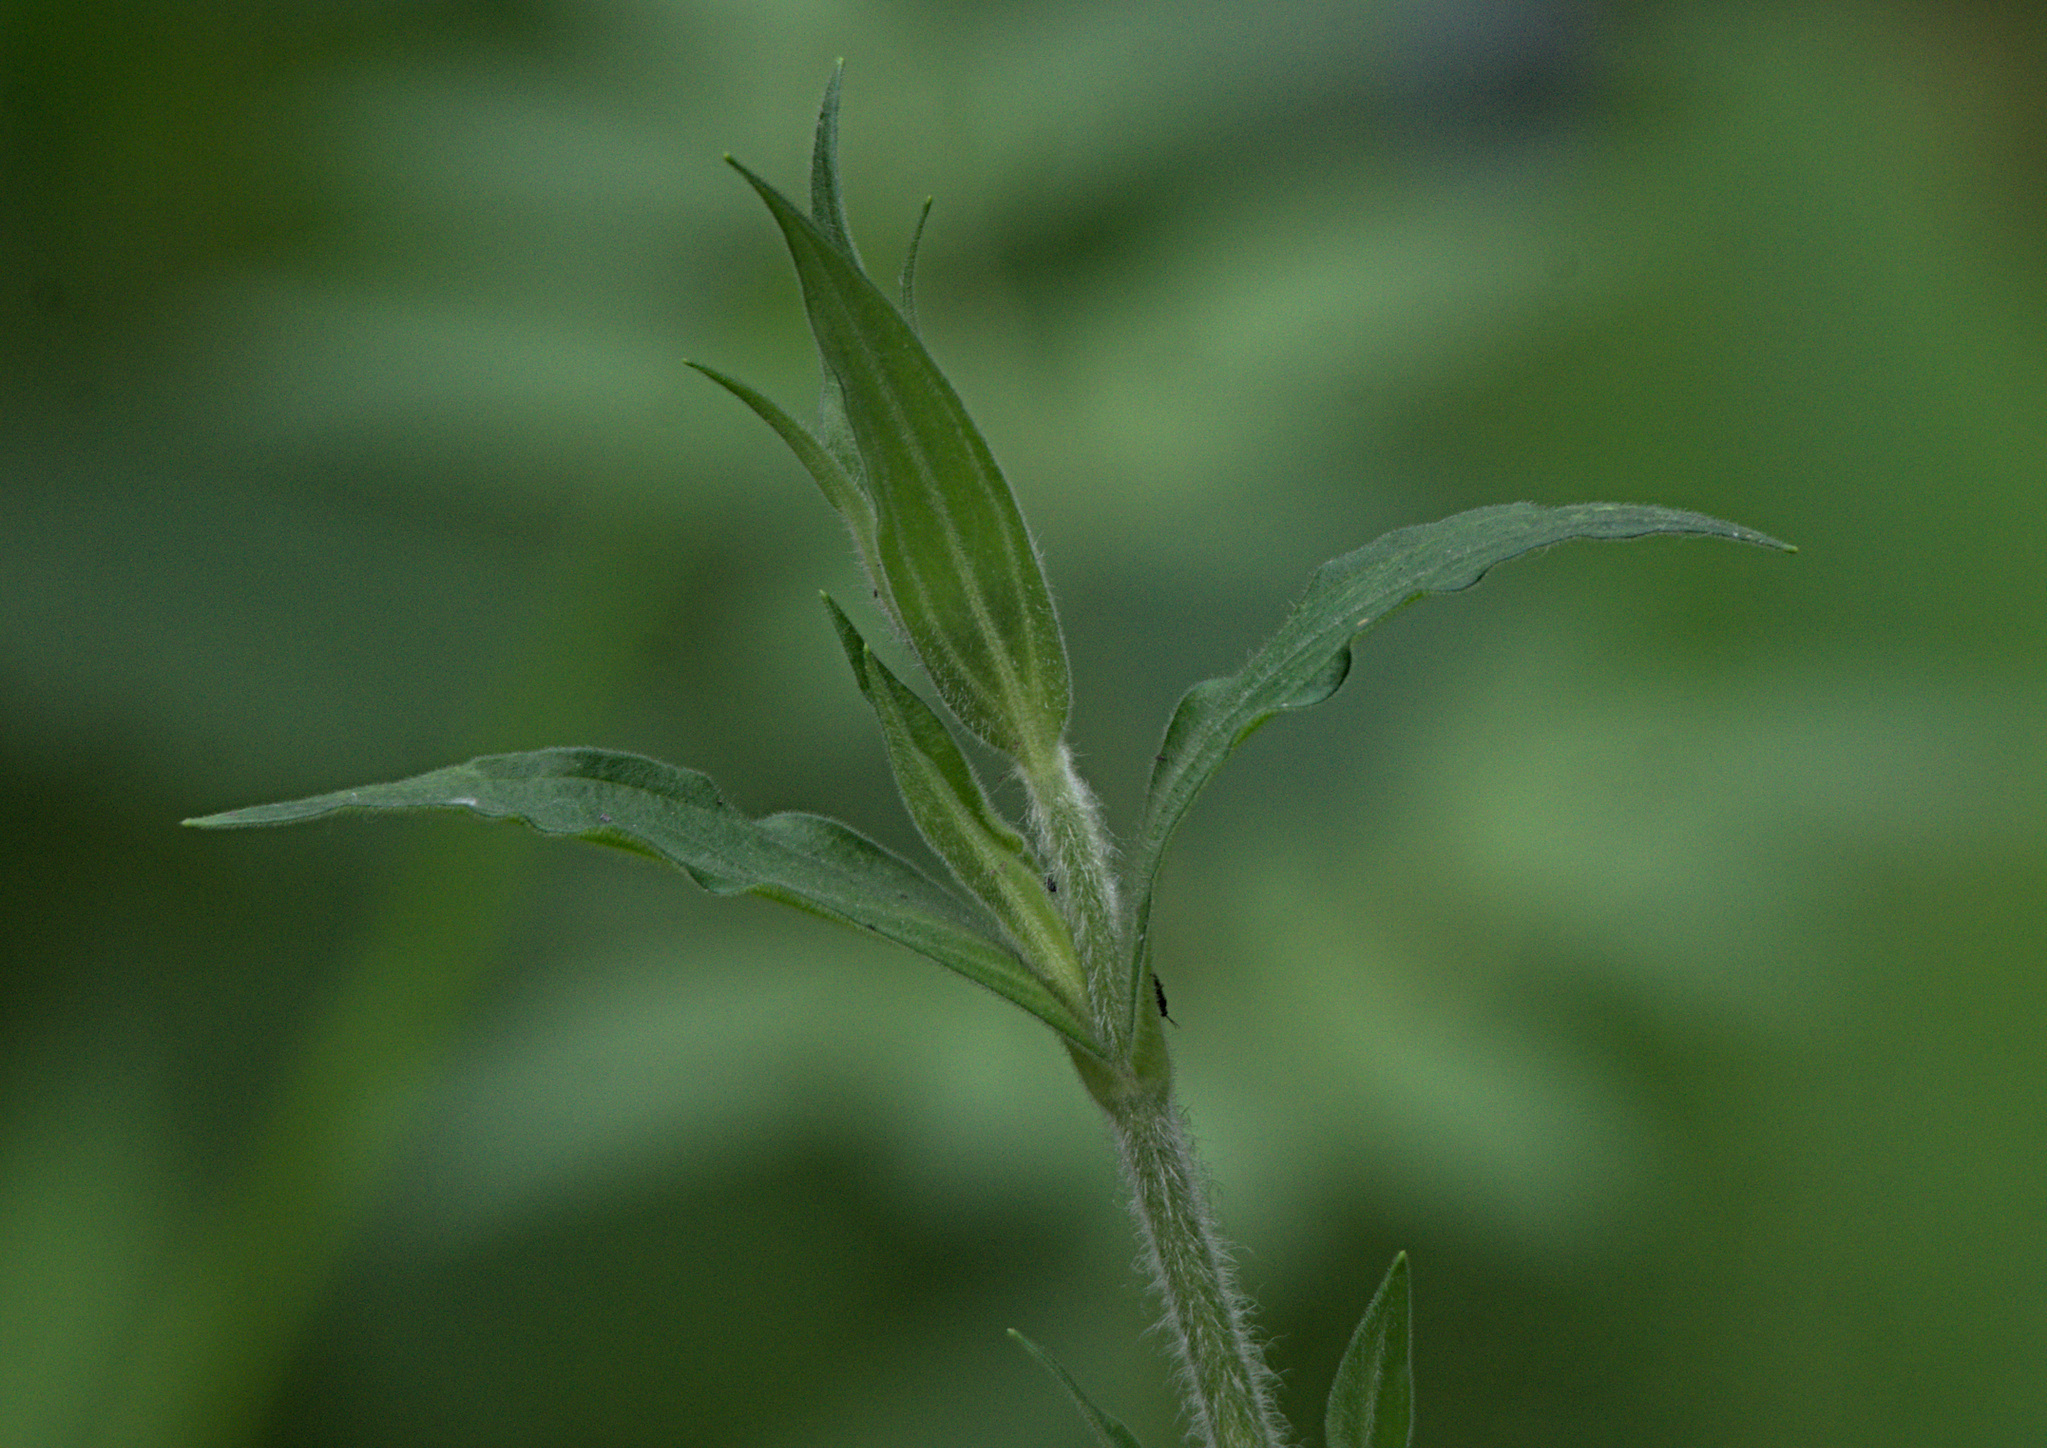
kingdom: Plantae
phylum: Tracheophyta
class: Magnoliopsida
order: Caryophyllales
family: Caryophyllaceae
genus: Silene
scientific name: Silene latifolia
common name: White campion
